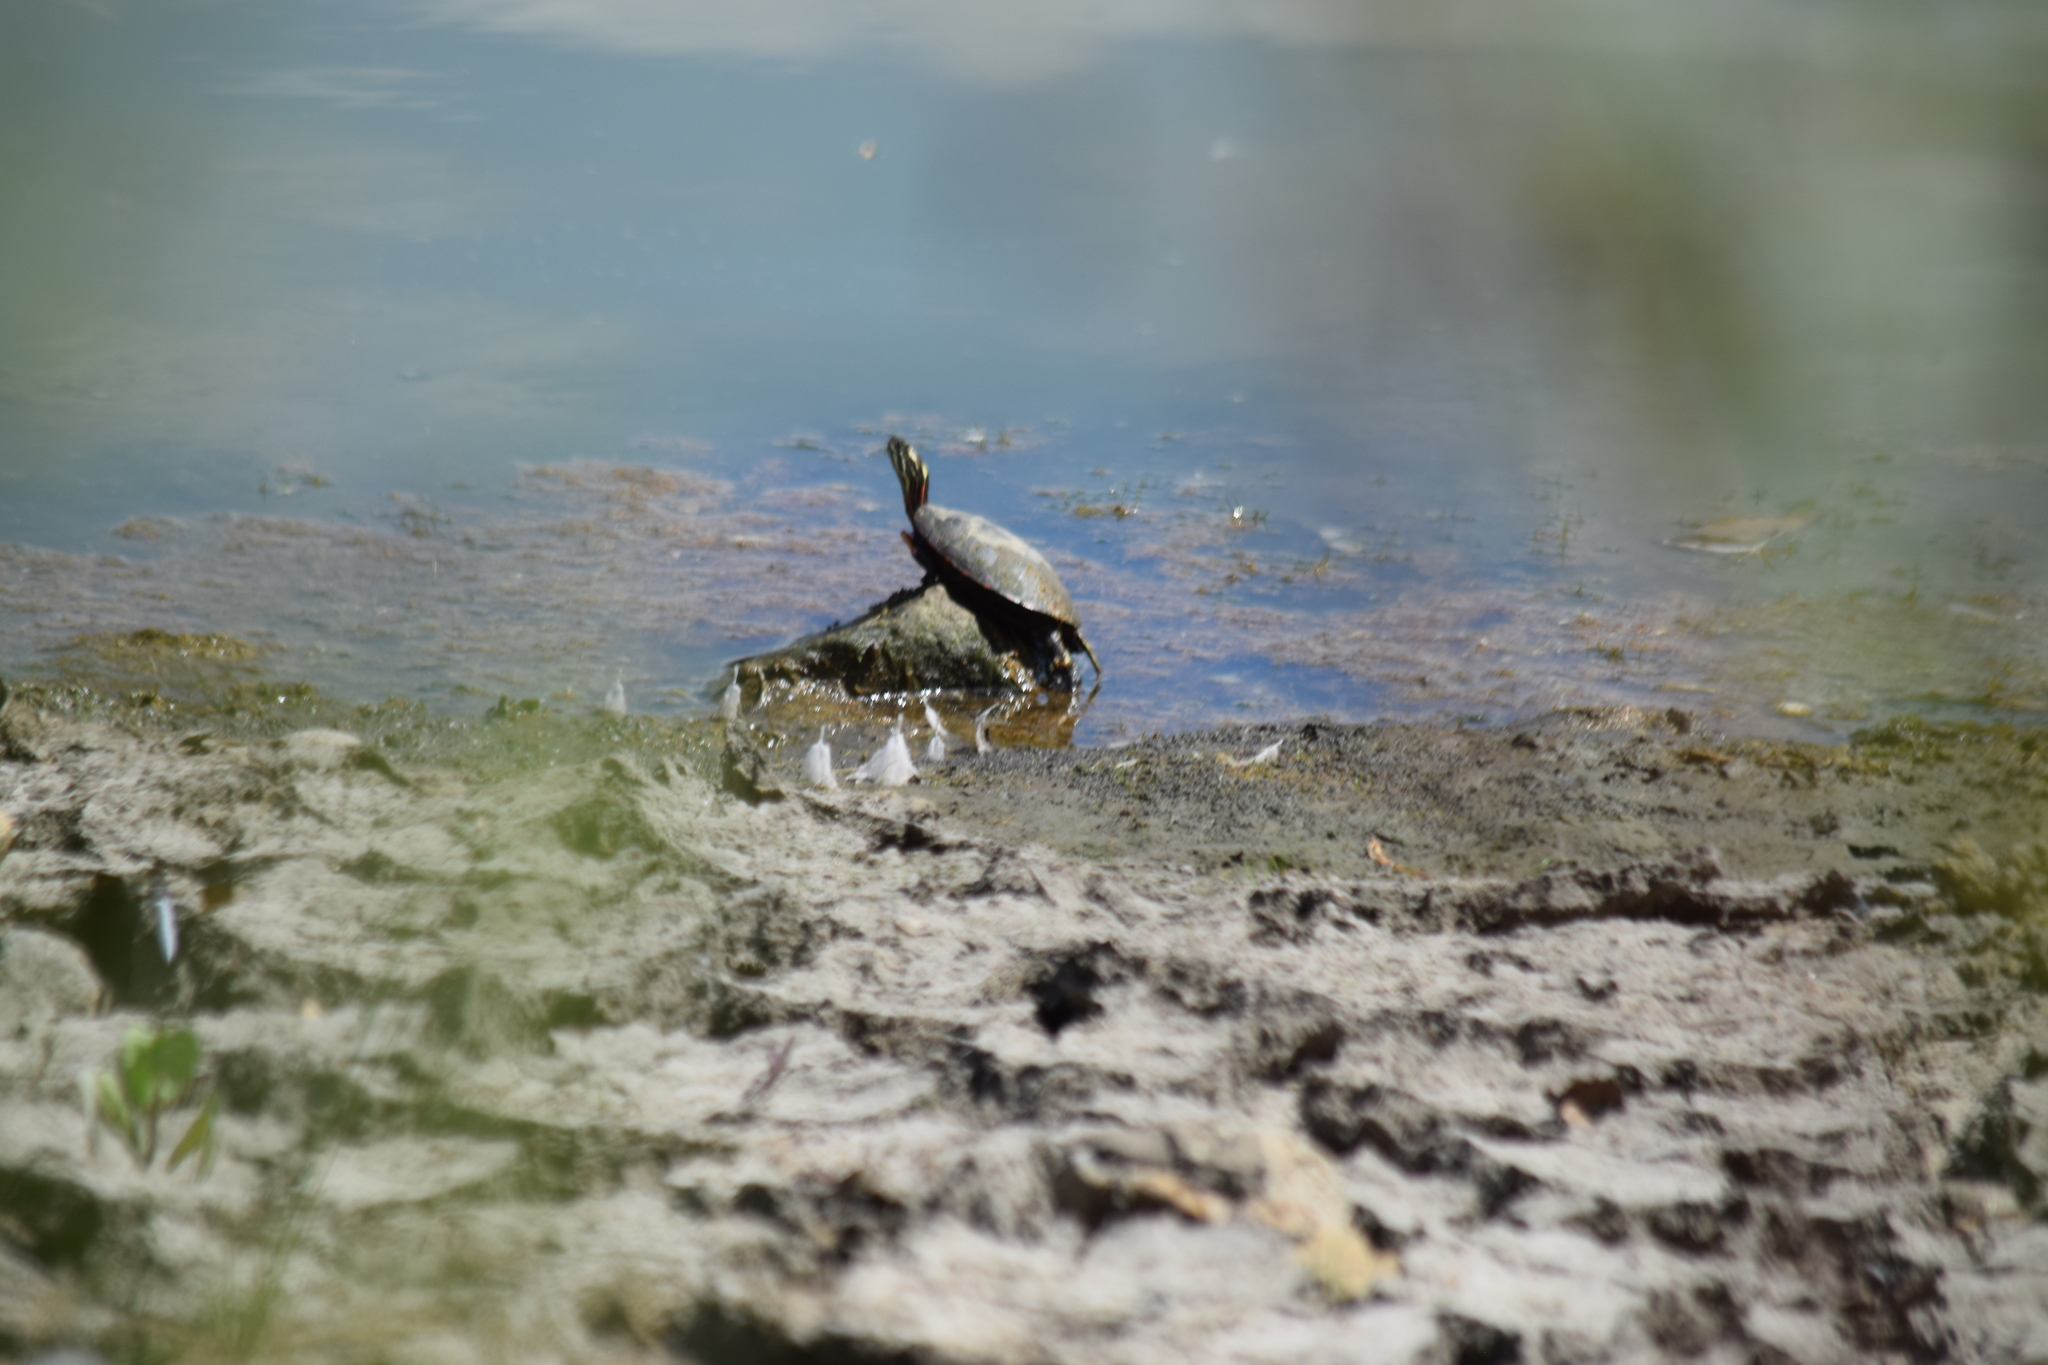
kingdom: Animalia
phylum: Chordata
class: Testudines
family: Emydidae
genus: Chrysemys
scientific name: Chrysemys picta
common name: Painted turtle
